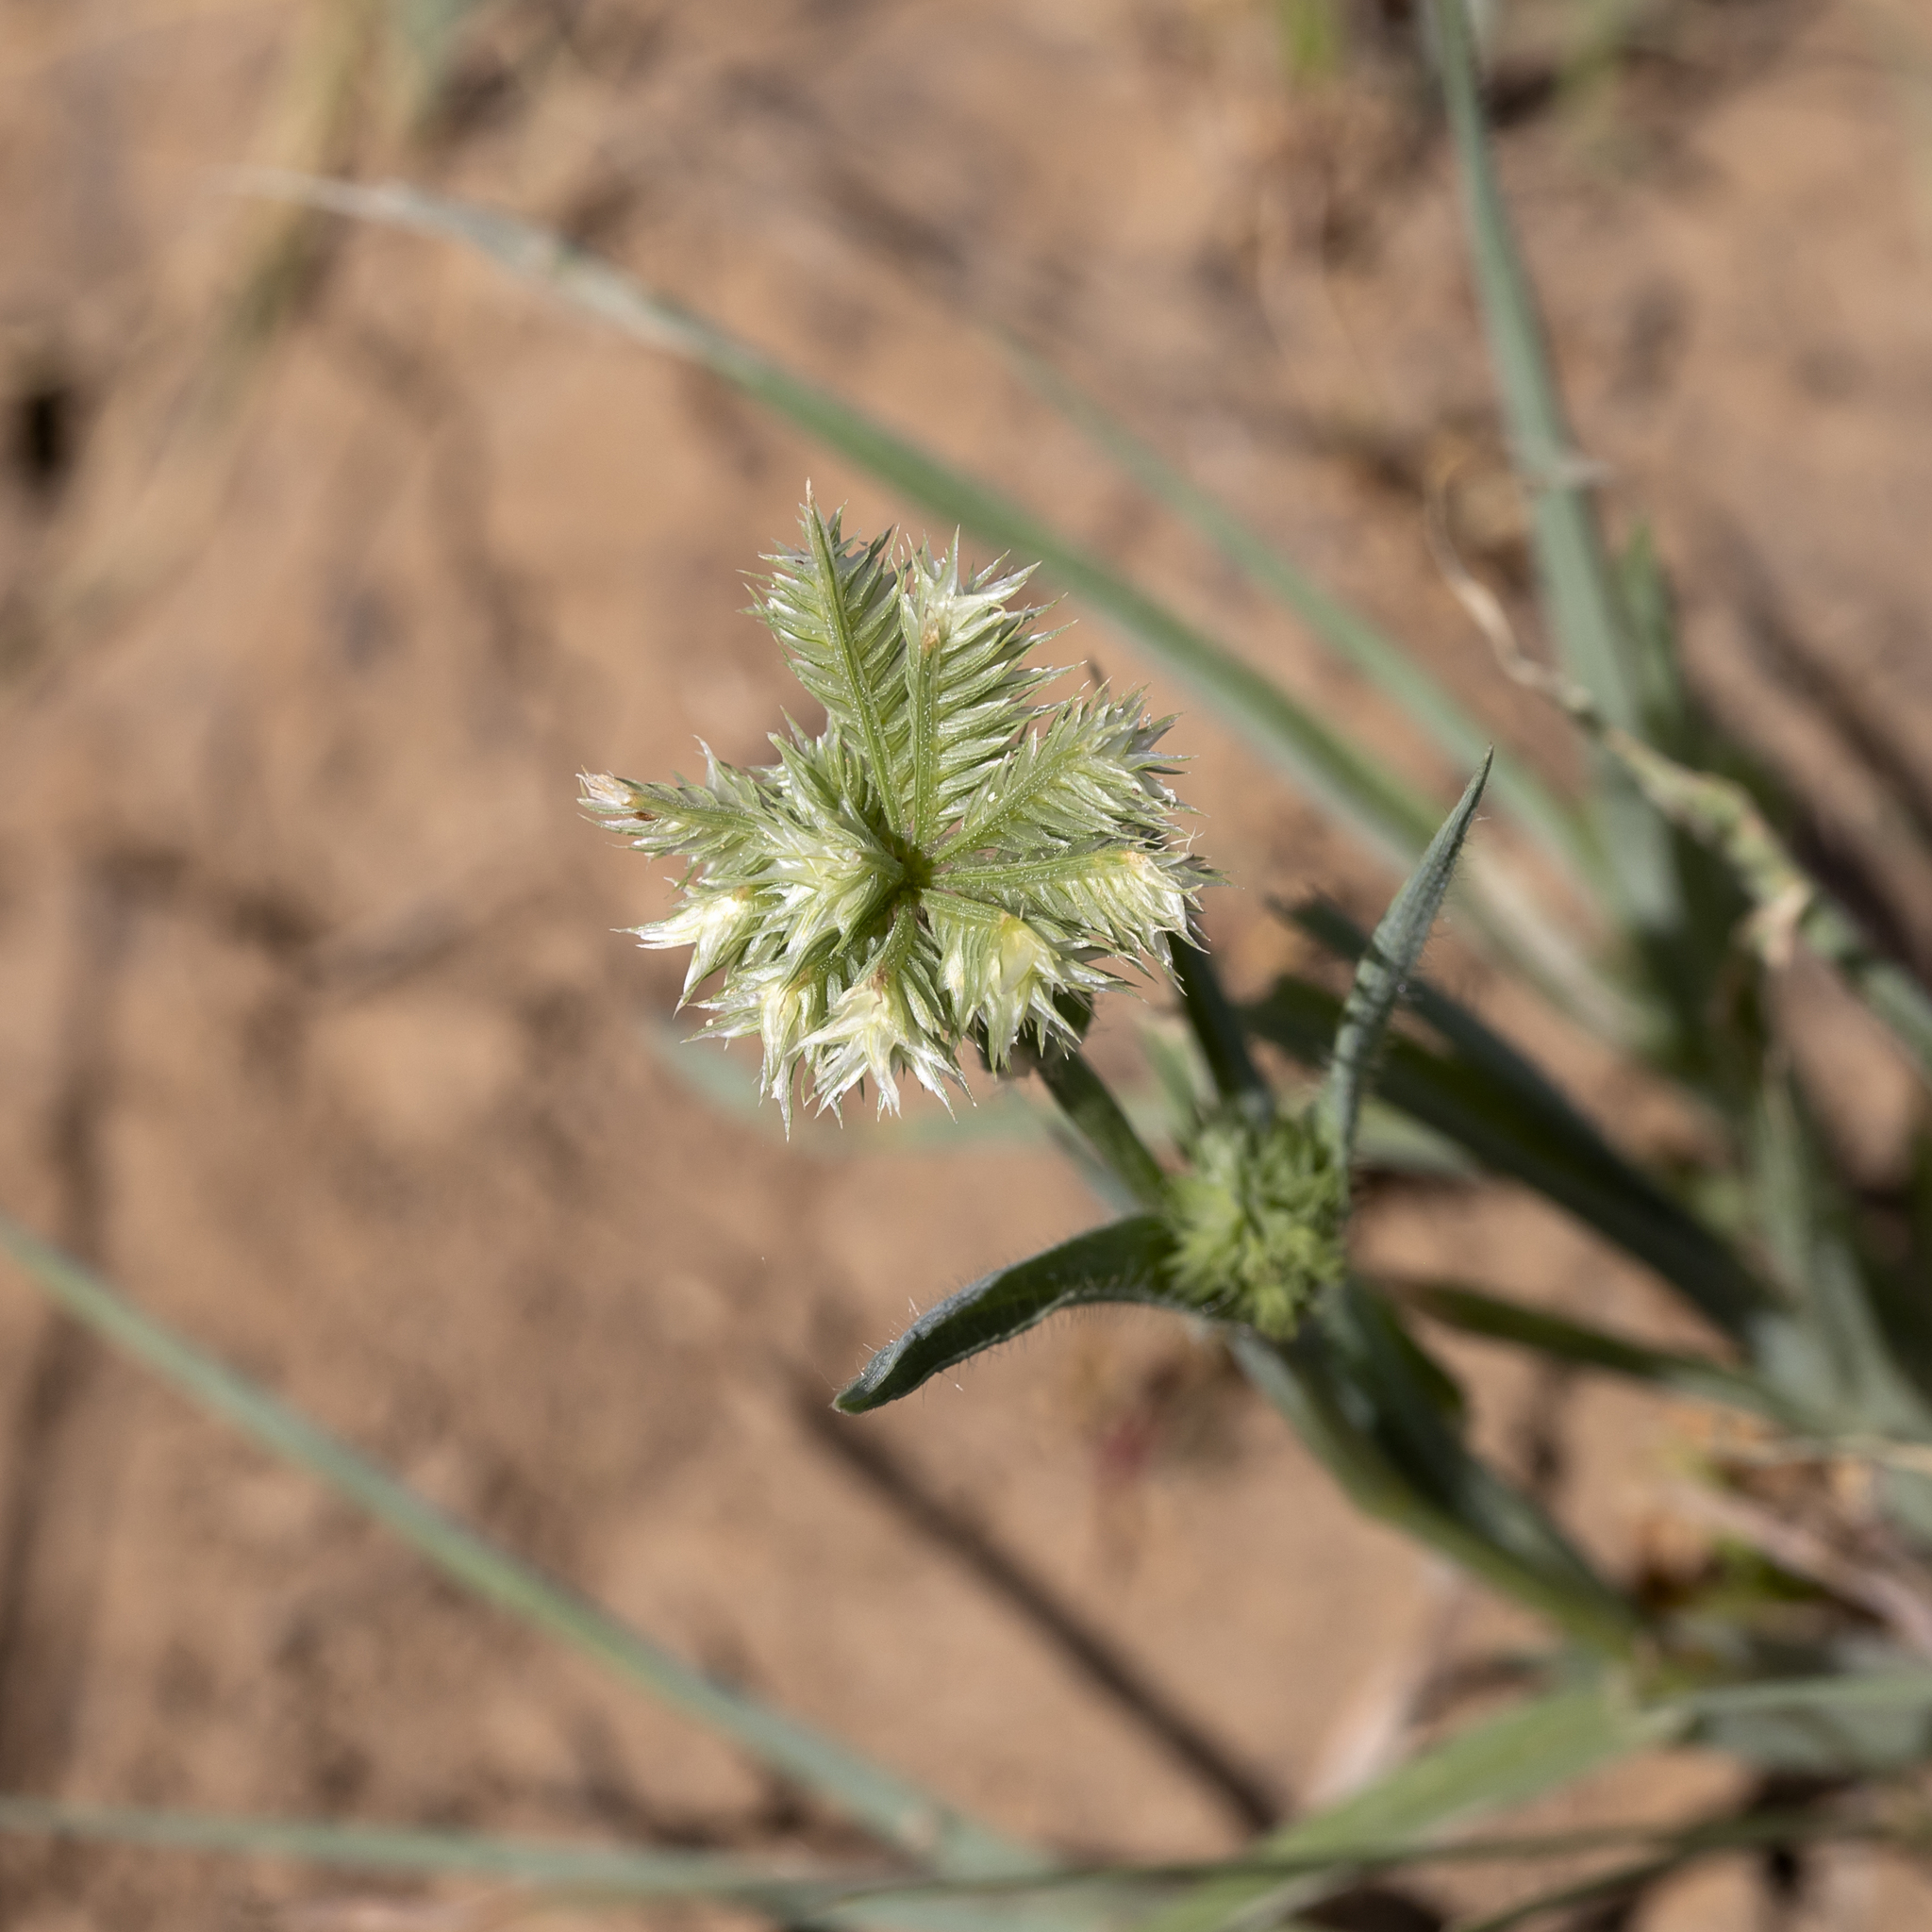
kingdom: Plantae
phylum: Tracheophyta
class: Liliopsida
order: Poales
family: Poaceae
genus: Dactyloctenium
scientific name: Dactyloctenium radulans
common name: Button-grass
